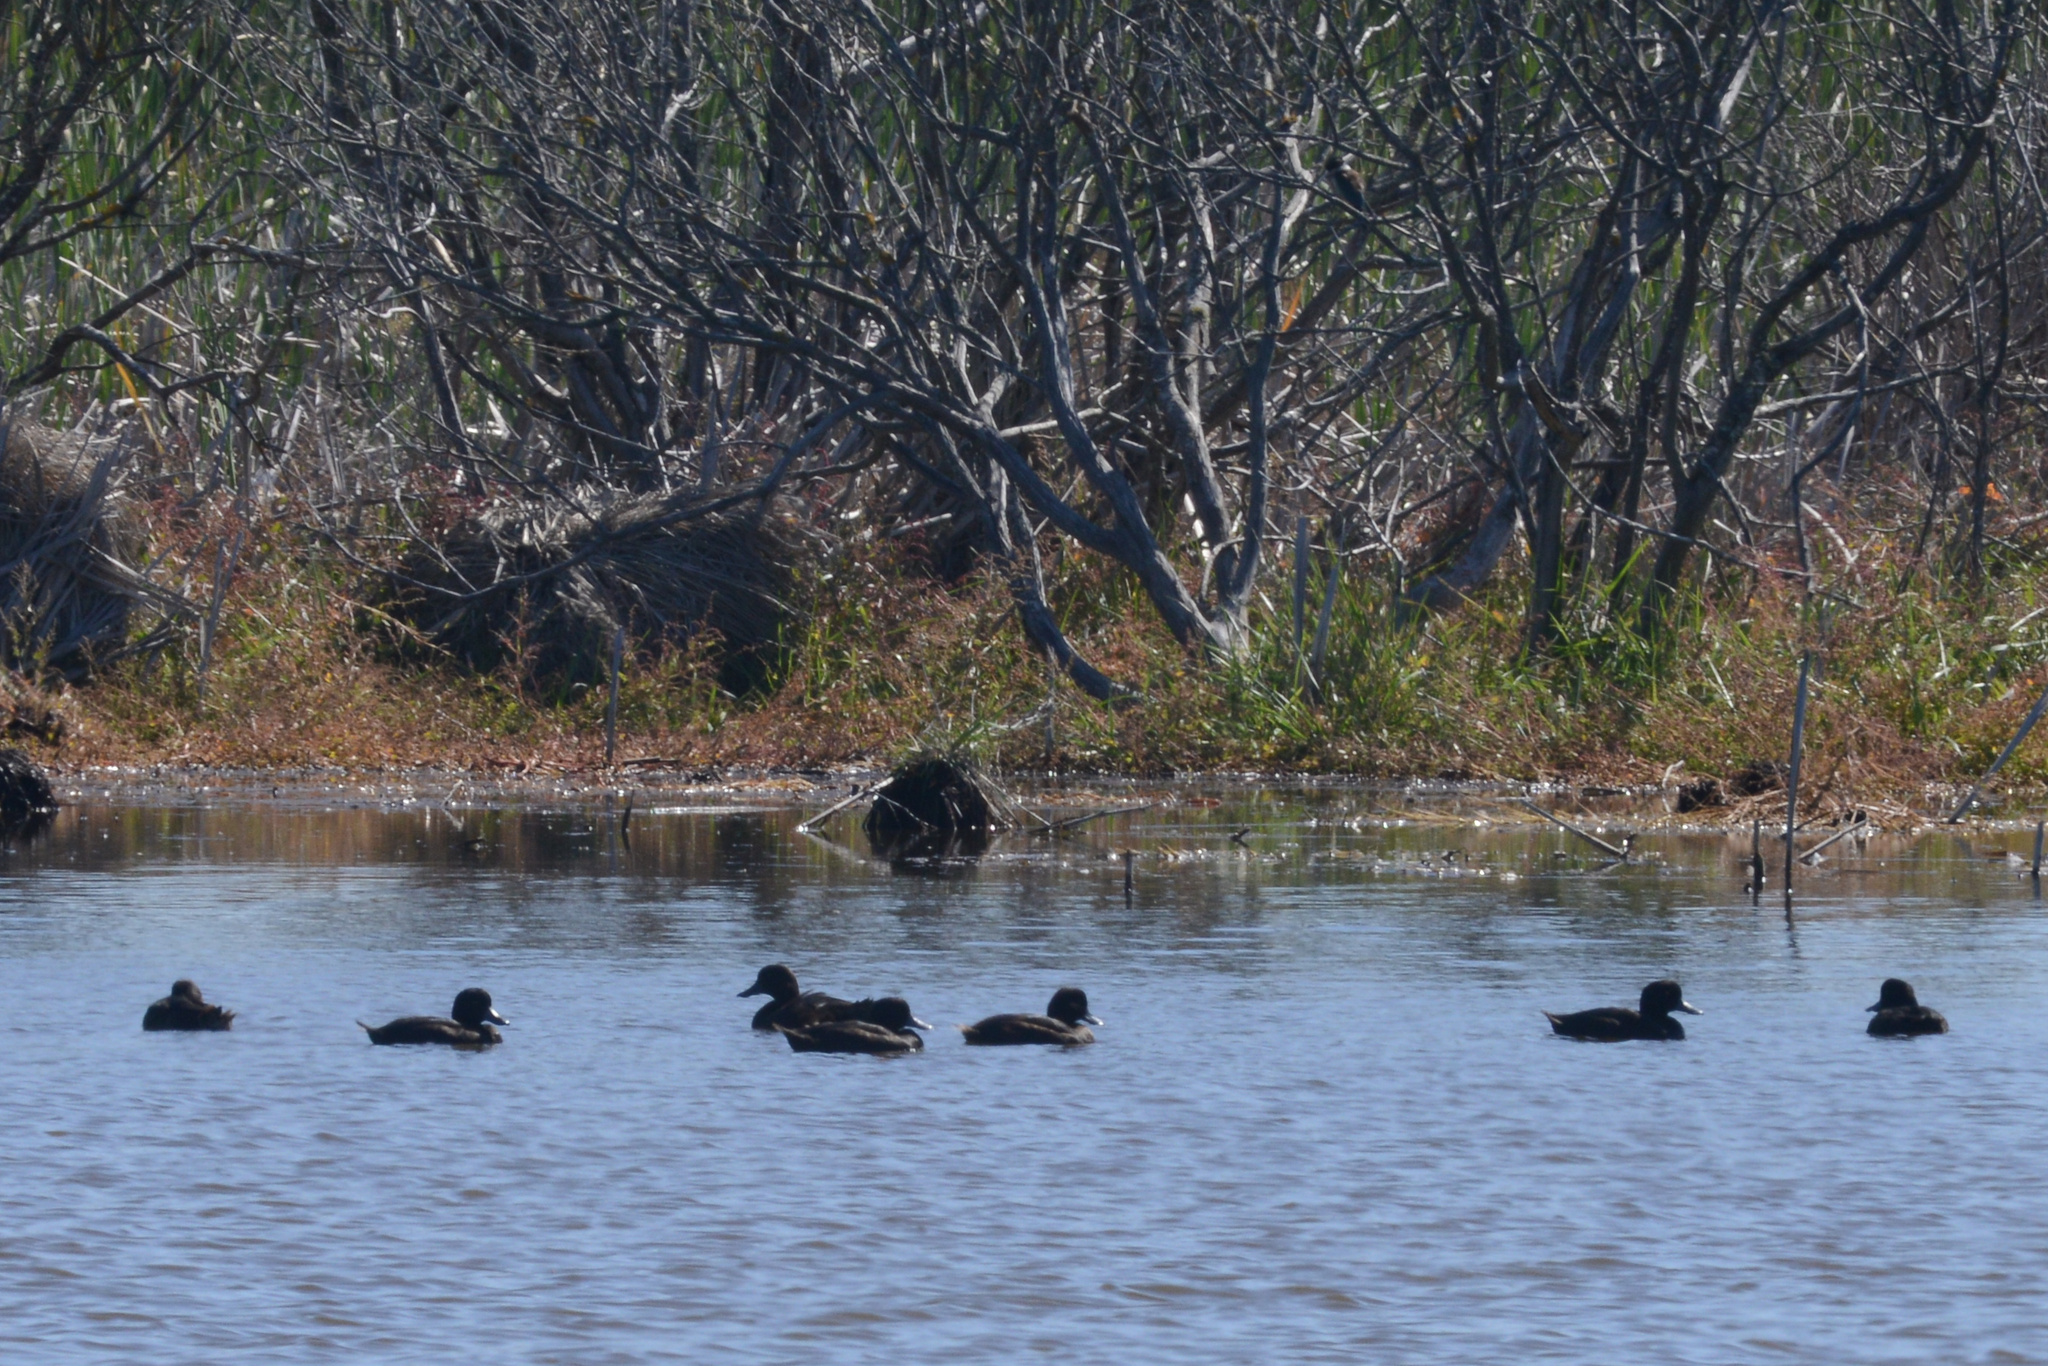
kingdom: Animalia
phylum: Chordata
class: Aves
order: Anseriformes
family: Anatidae
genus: Aythya
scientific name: Aythya novaeseelandiae
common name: New zealand scaup
